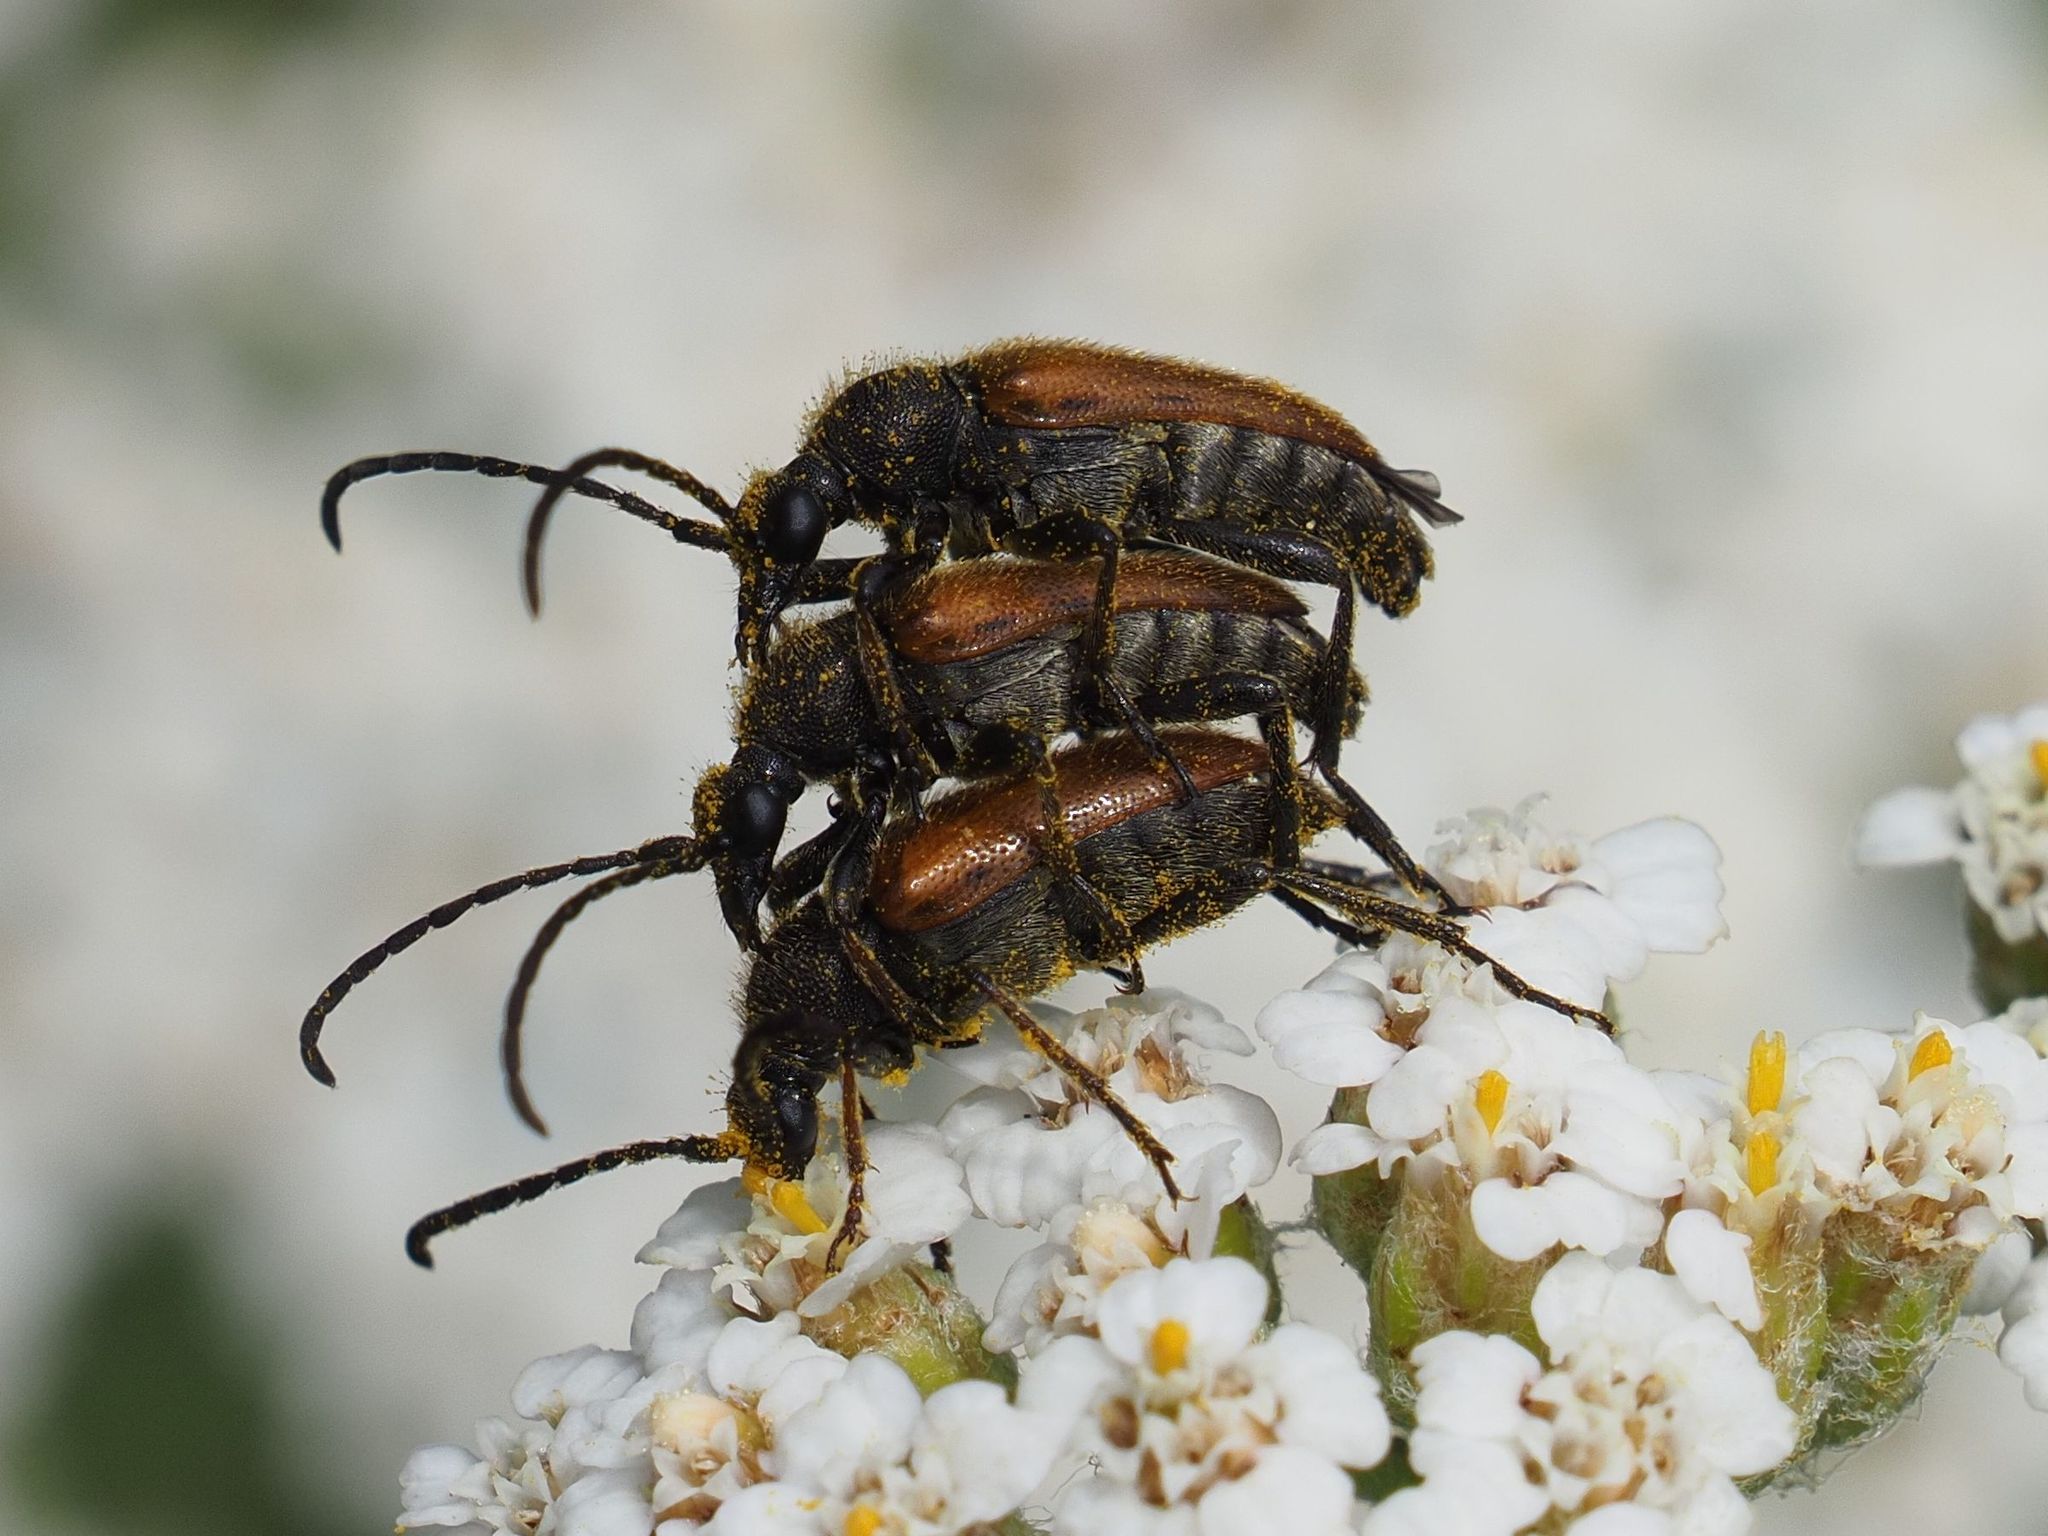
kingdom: Animalia
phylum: Arthropoda
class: Insecta
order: Coleoptera
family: Cerambycidae
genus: Pseudovadonia
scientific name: Pseudovadonia livida
